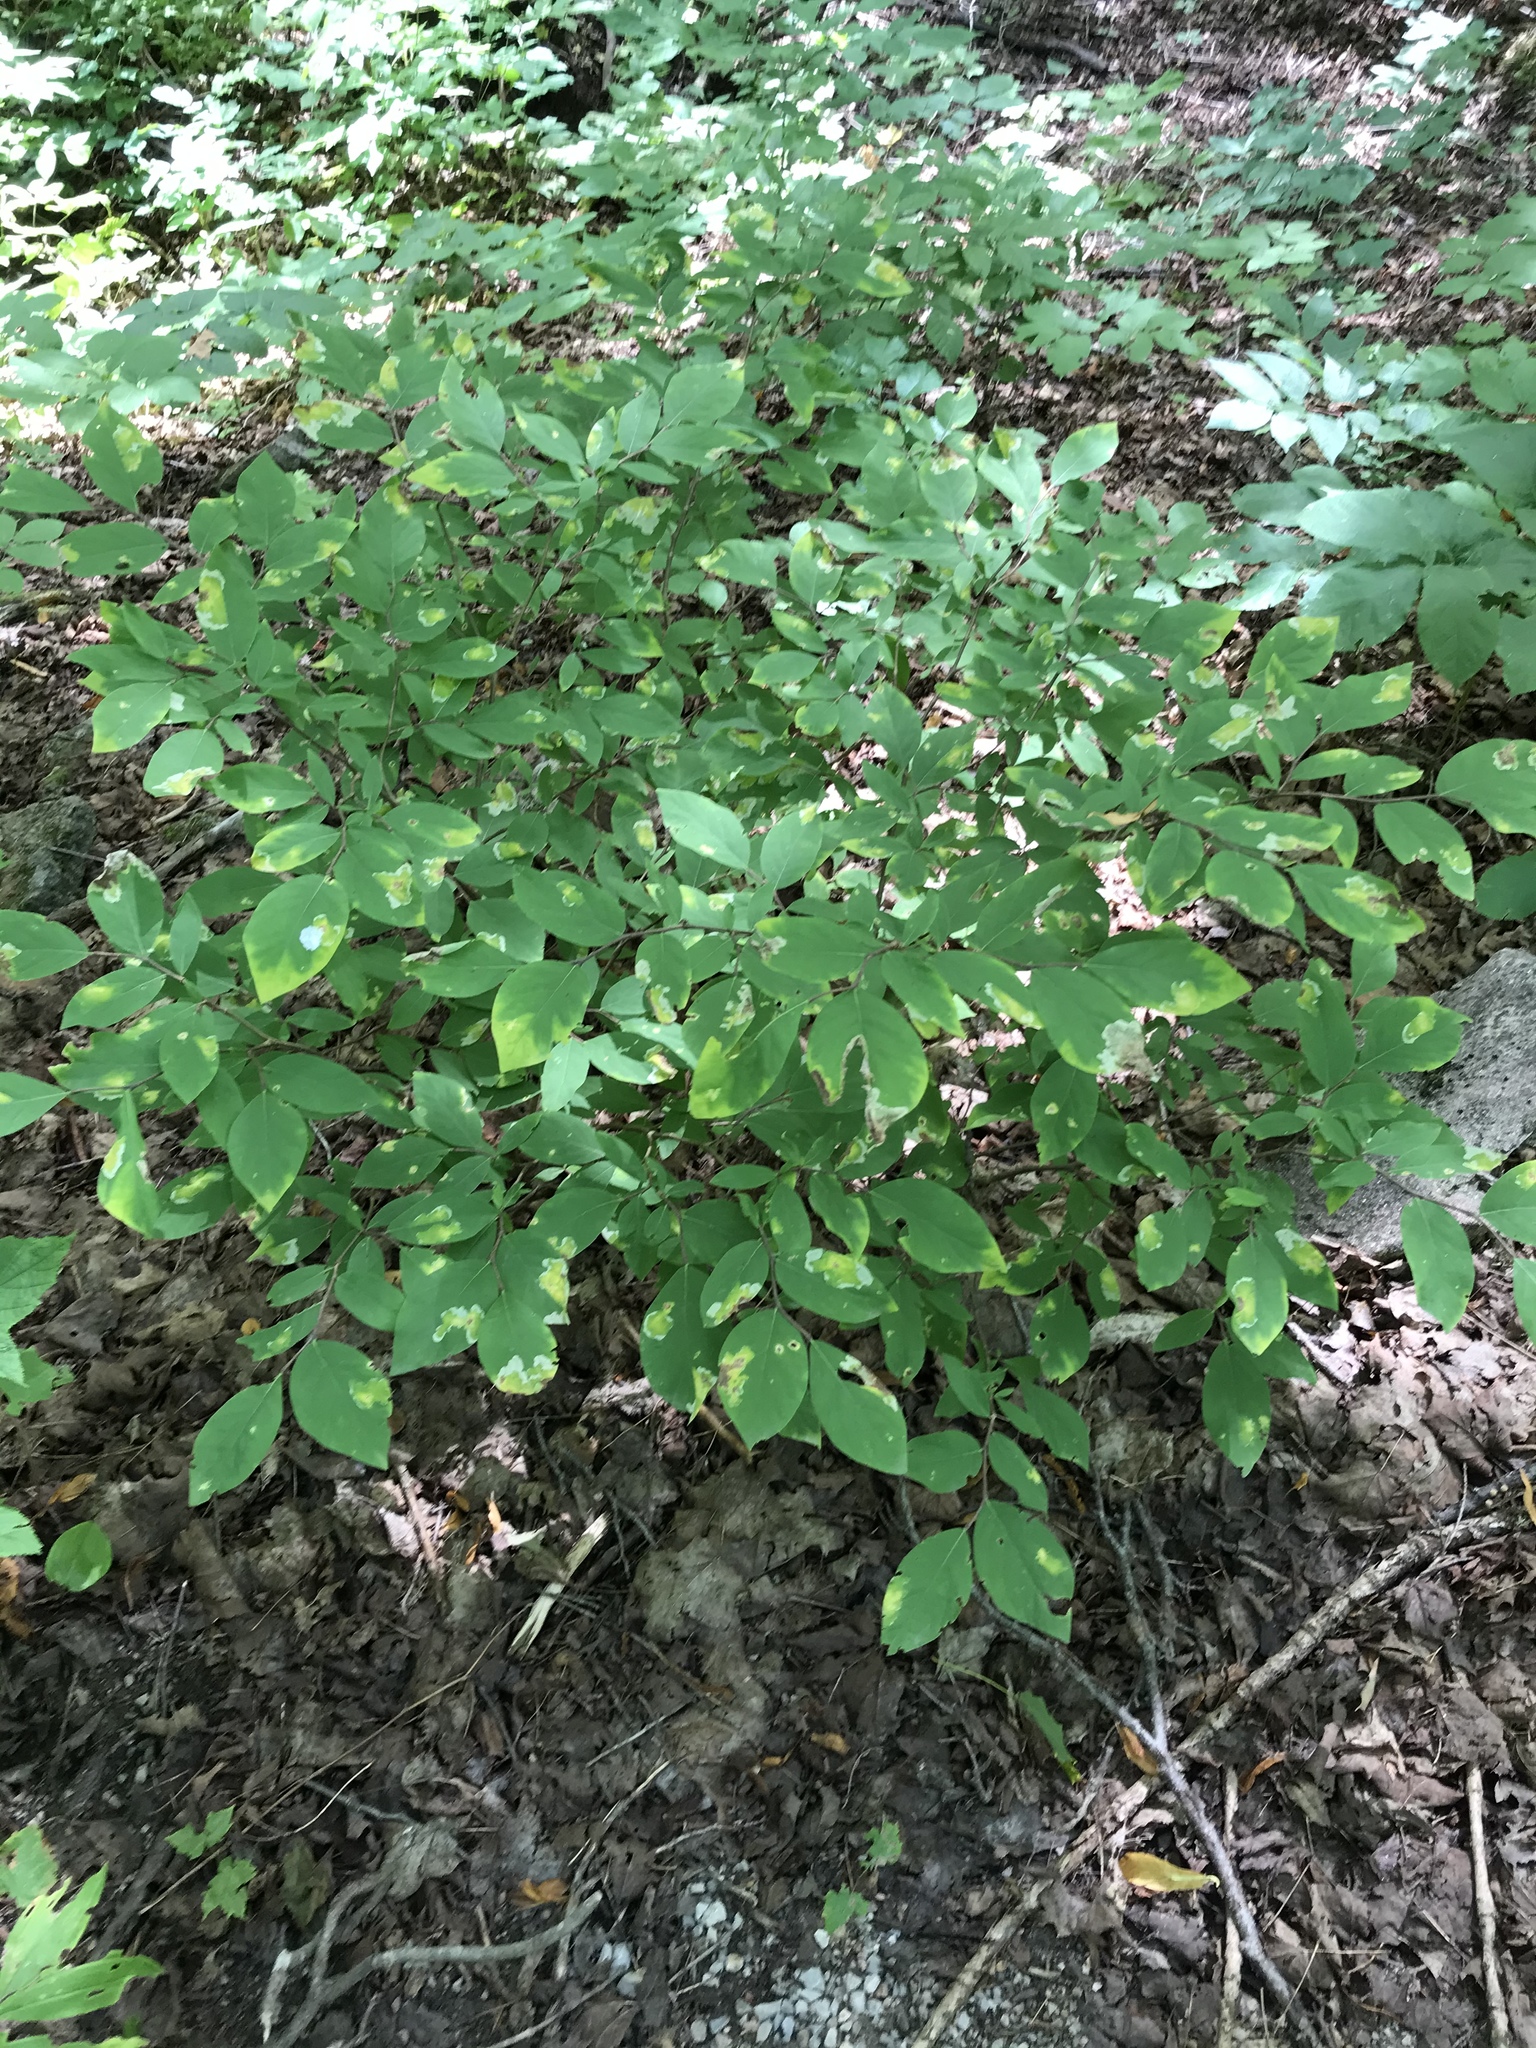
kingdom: Plantae
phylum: Tracheophyta
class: Magnoliopsida
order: Malvales
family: Thymelaeaceae
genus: Dirca
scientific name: Dirca palustris
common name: Leatherwood
